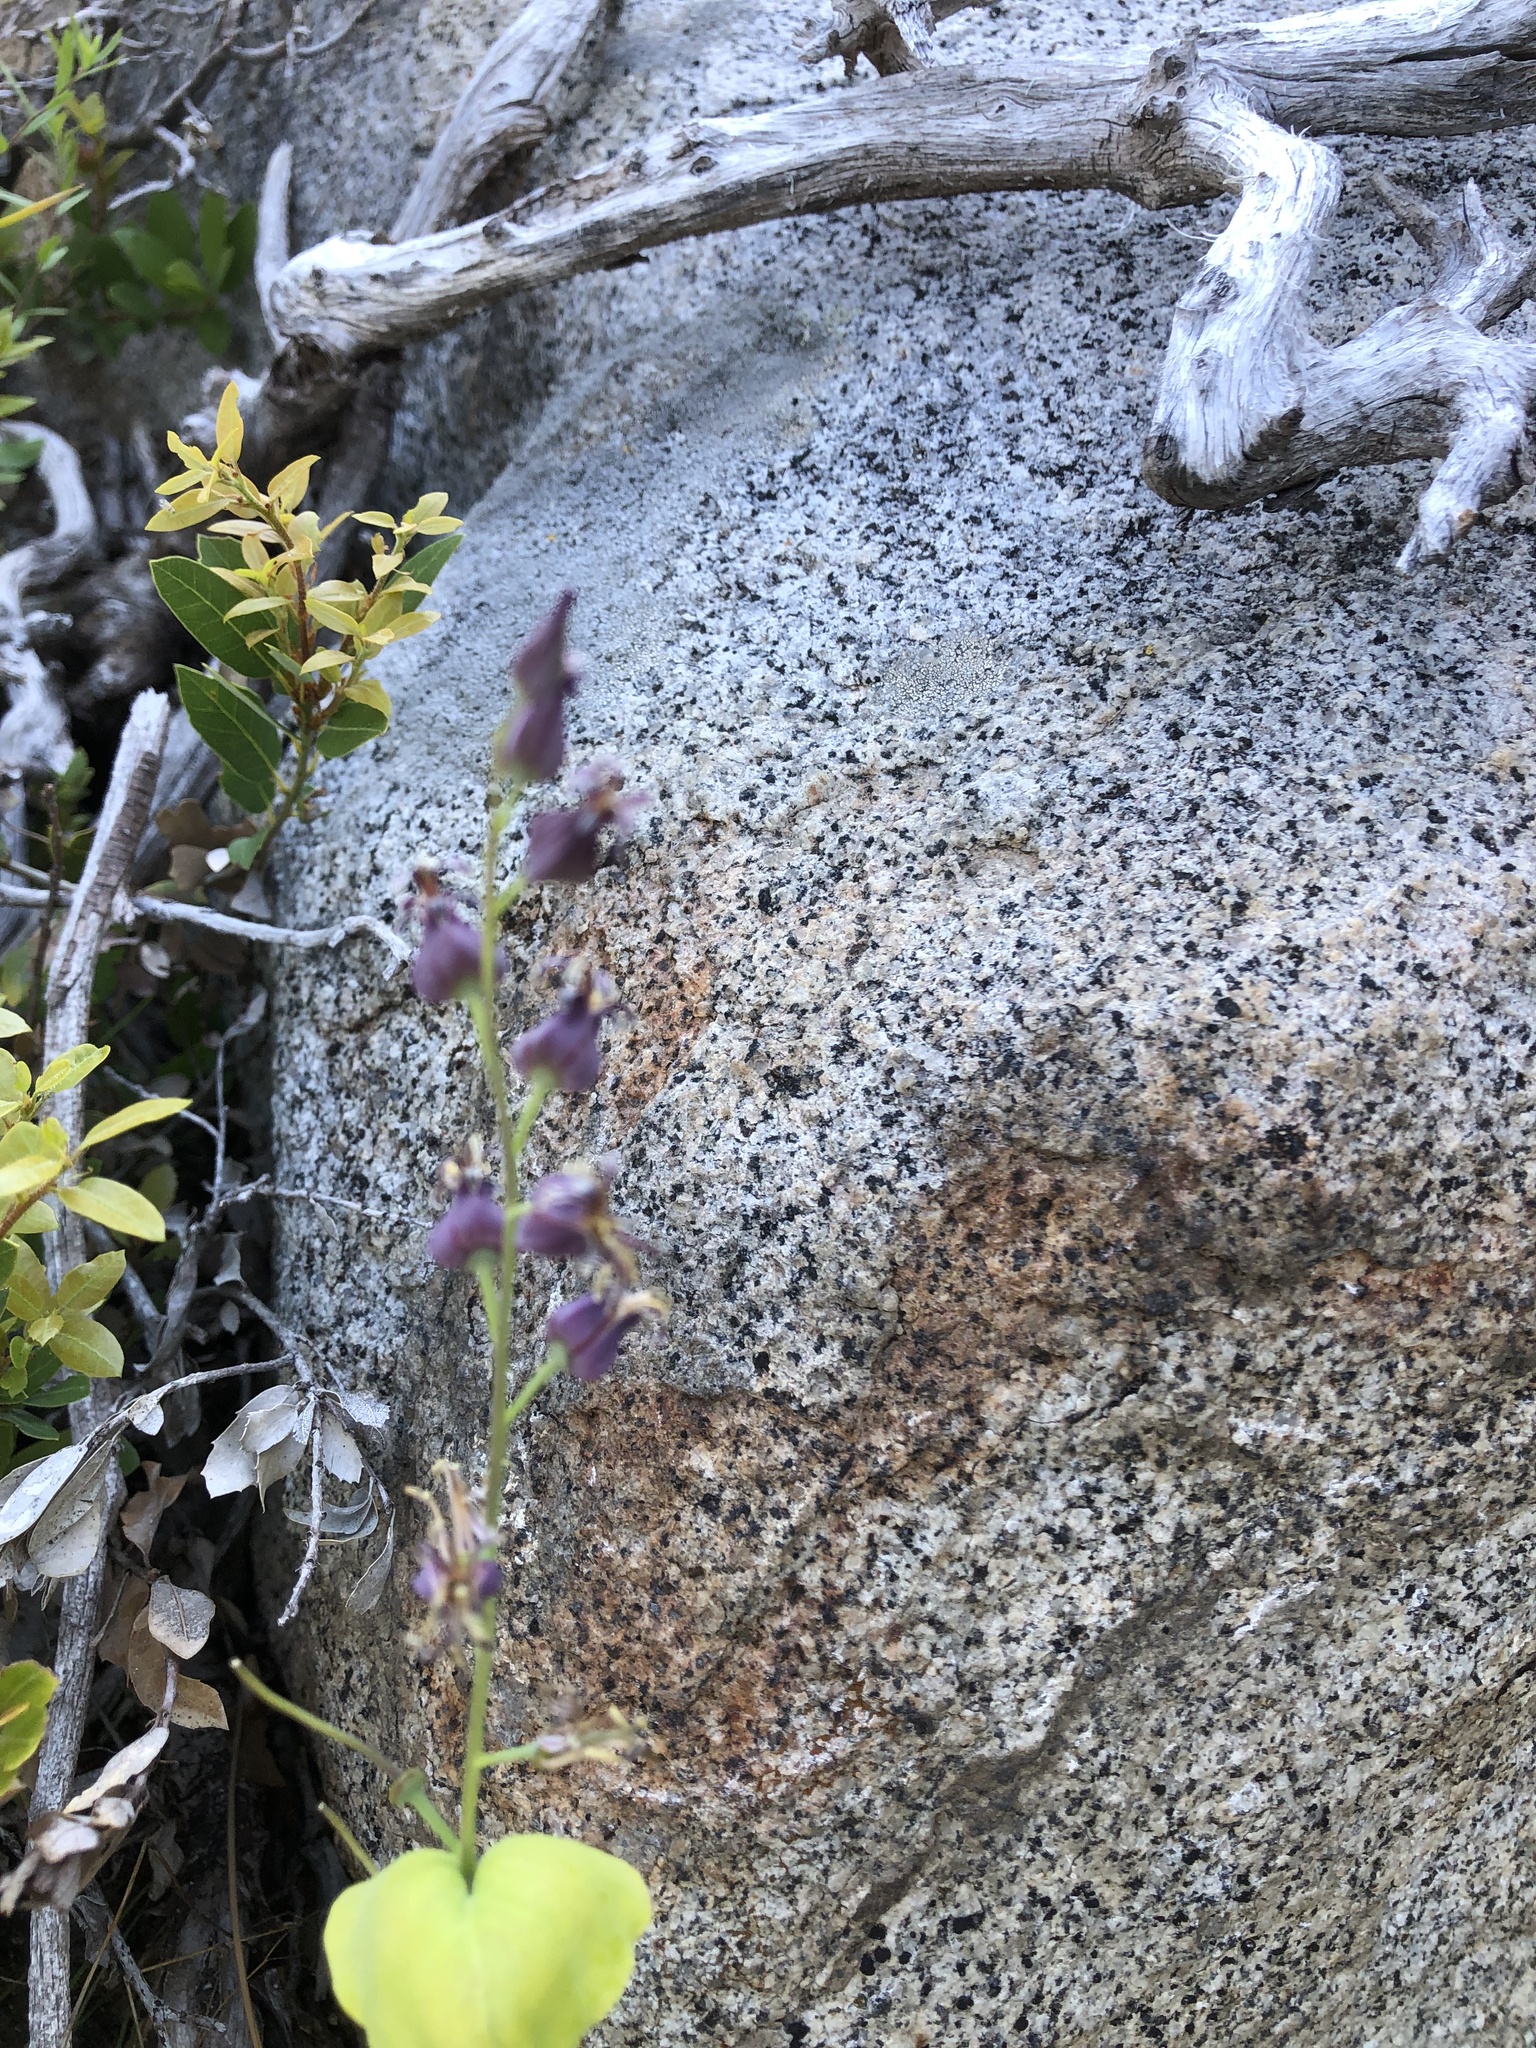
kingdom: Plantae
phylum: Tracheophyta
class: Magnoliopsida
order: Brassicales
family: Brassicaceae
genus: Streptanthus
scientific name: Streptanthus tortuosus
